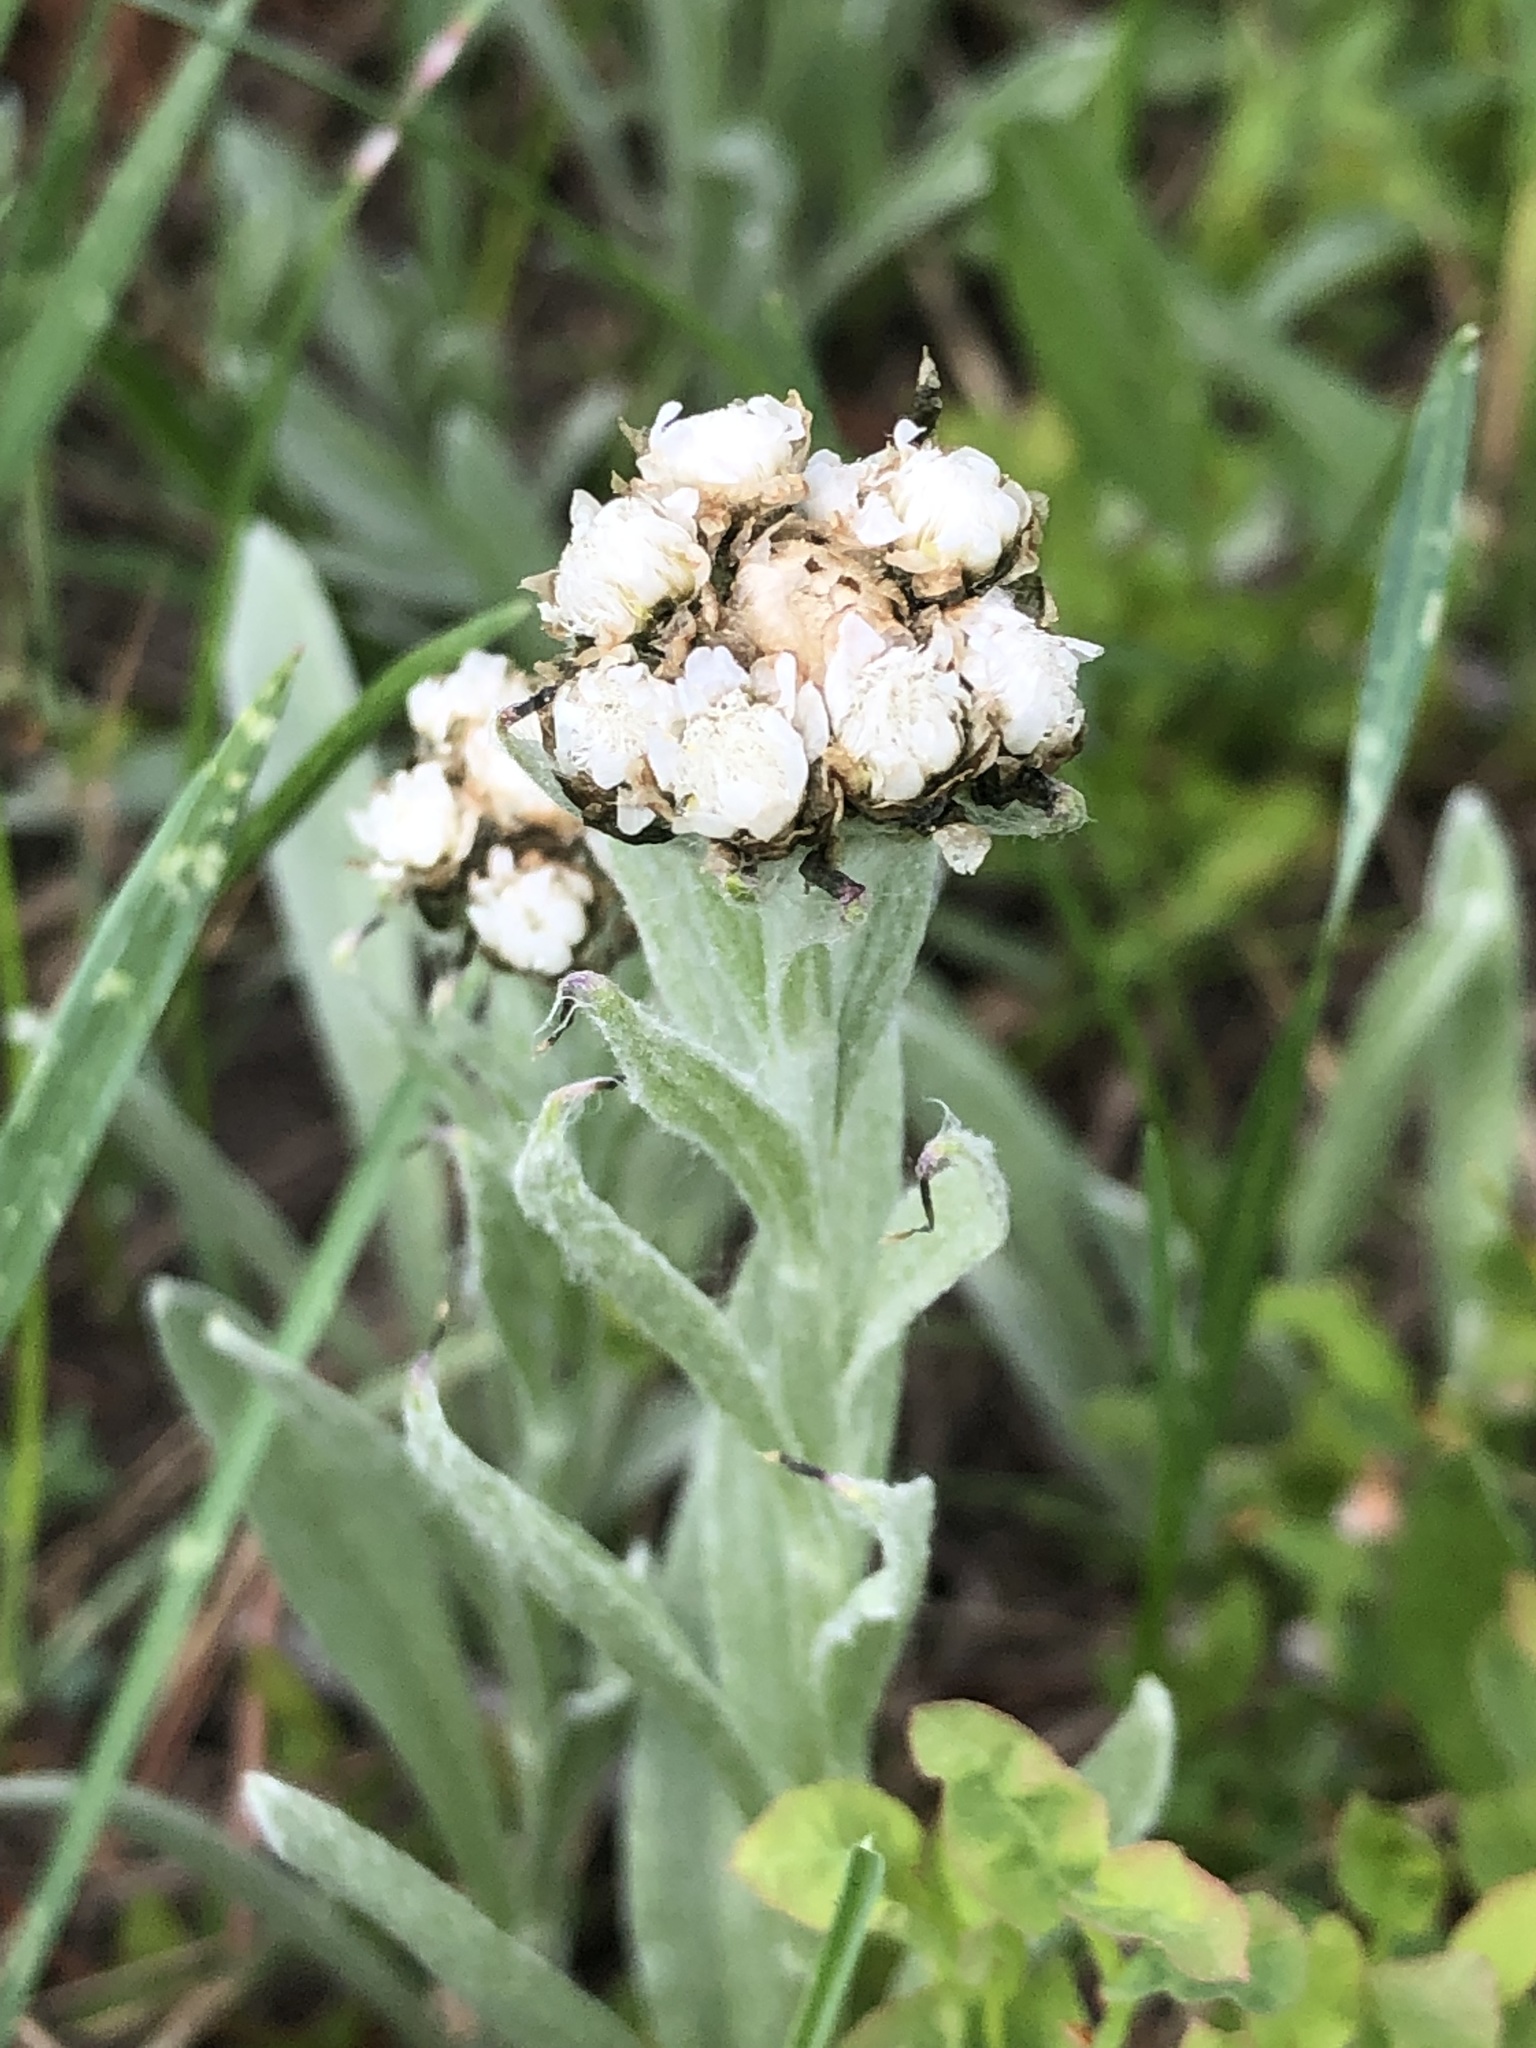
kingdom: Plantae
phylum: Tracheophyta
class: Magnoliopsida
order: Asterales
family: Asteraceae
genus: Antennaria
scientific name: Antennaria lanata
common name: Woolly pussytoes
